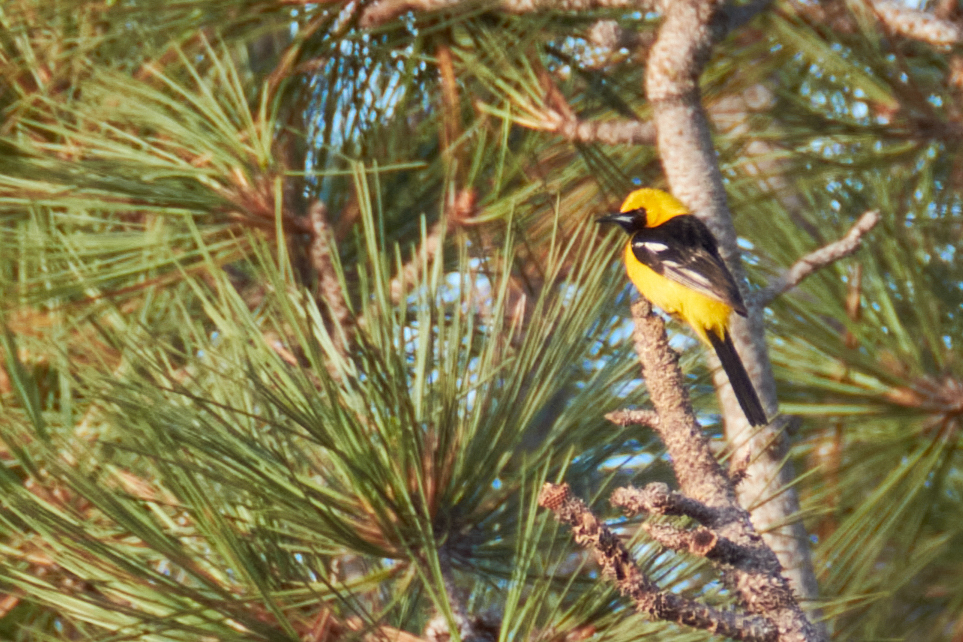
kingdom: Animalia
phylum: Chordata
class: Aves
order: Passeriformes
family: Icteridae
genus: Icterus
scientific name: Icterus cucullatus
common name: Hooded oriole
